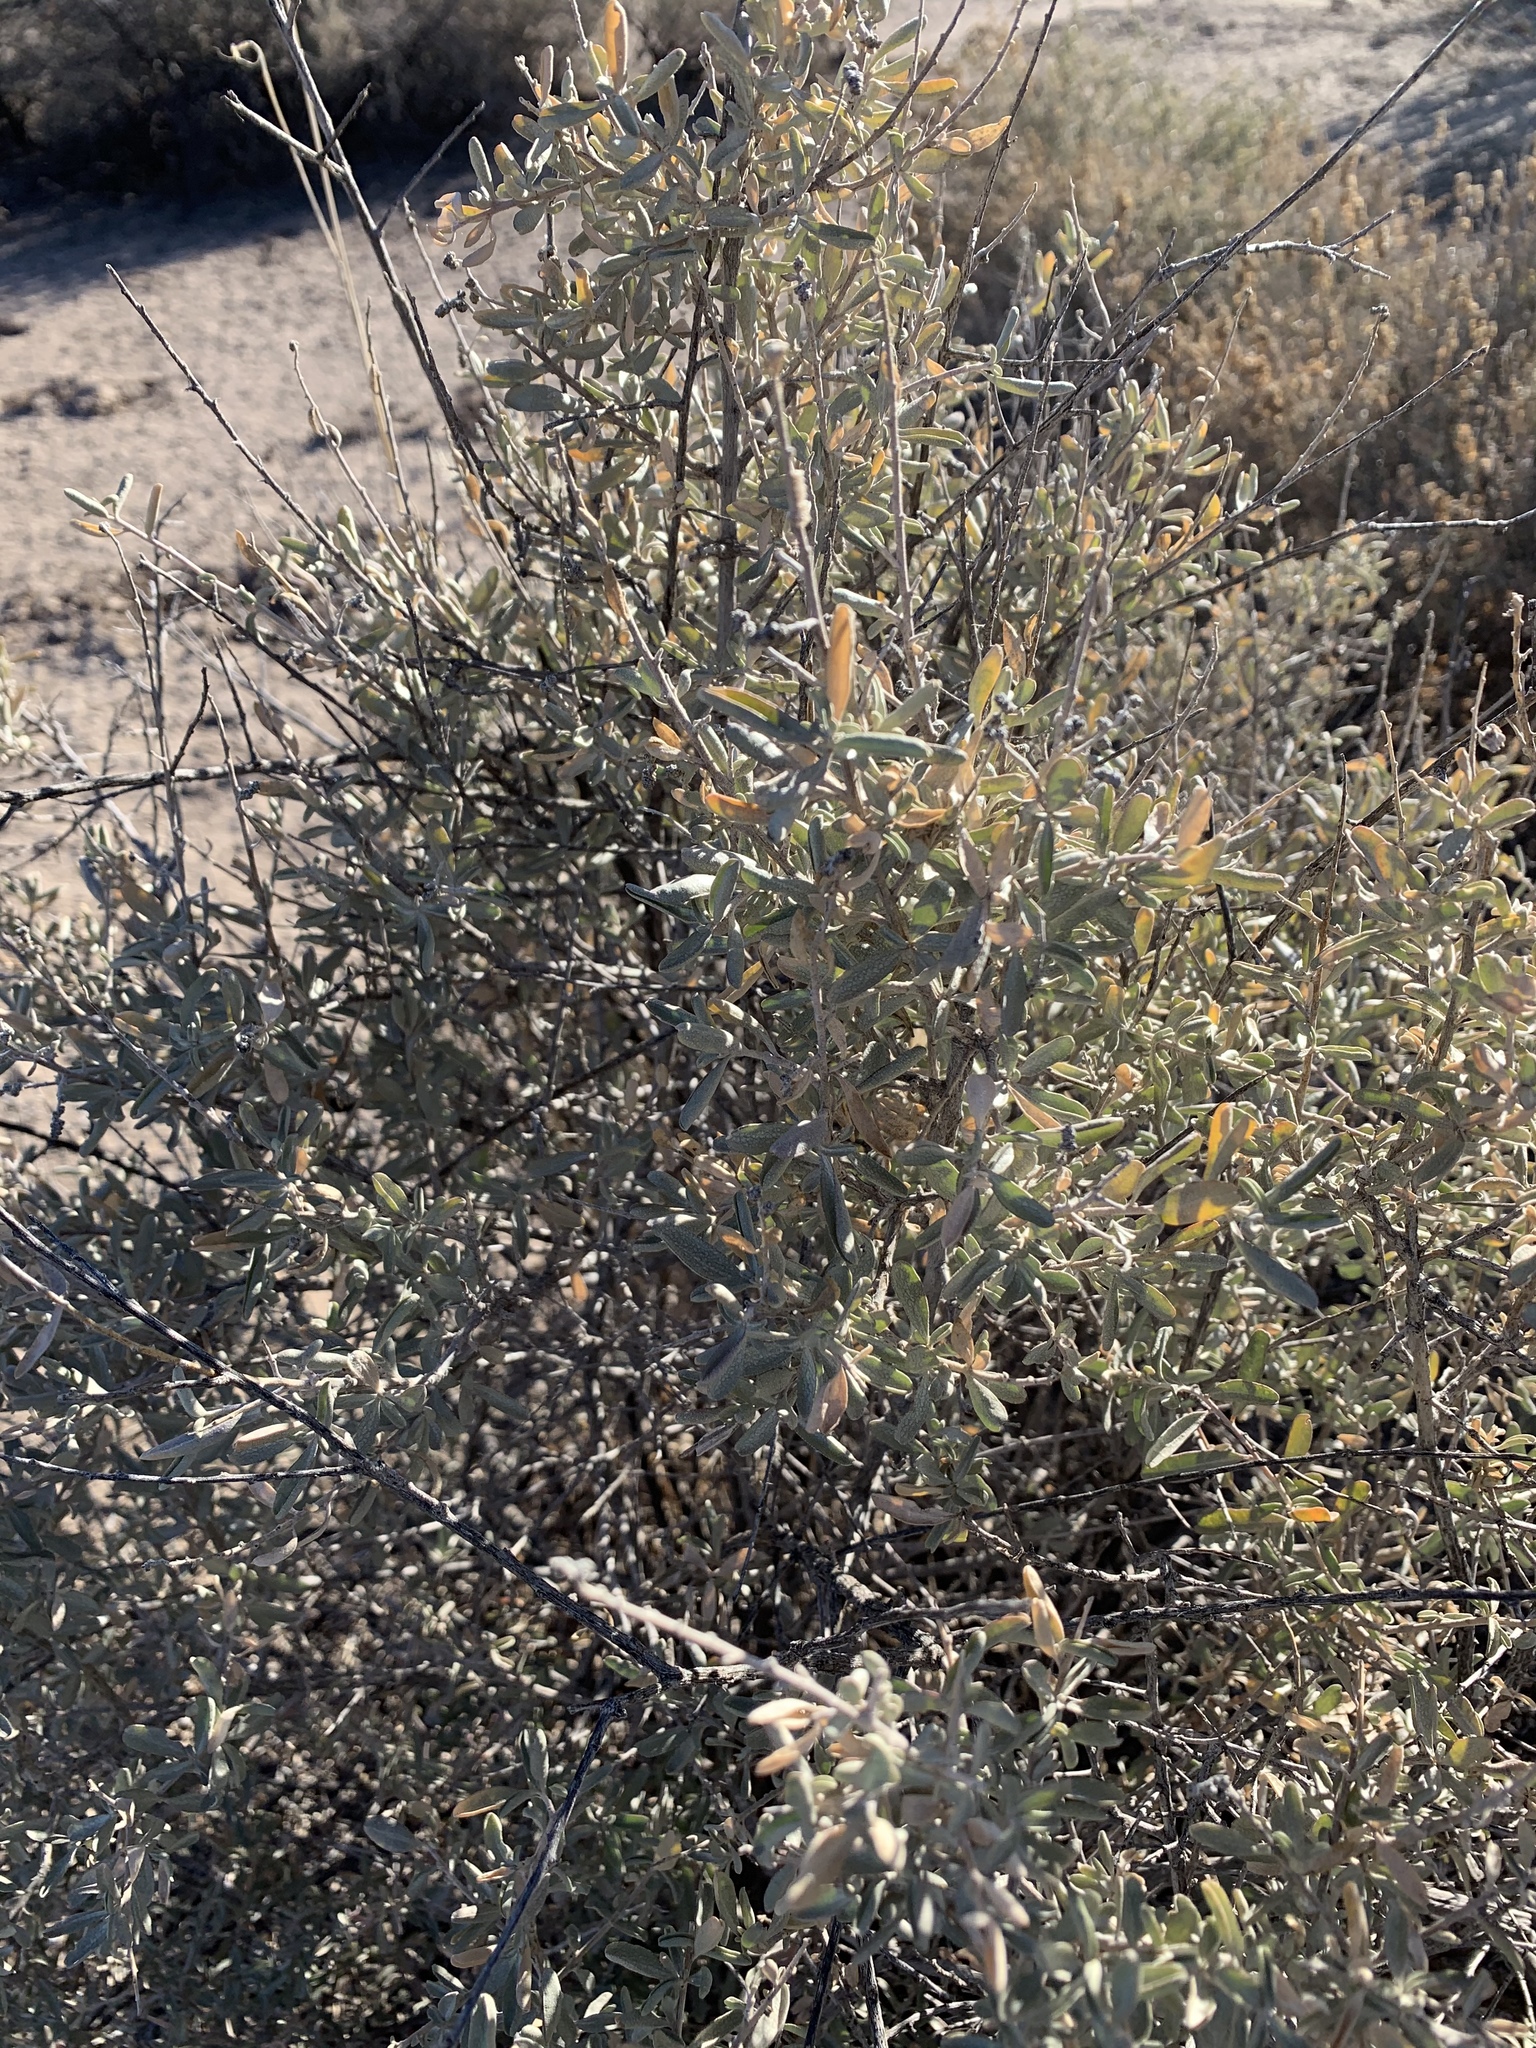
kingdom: Plantae
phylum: Tracheophyta
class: Magnoliopsida
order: Caryophyllales
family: Amaranthaceae
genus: Atriplex
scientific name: Atriplex canescens
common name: Four-wing saltbush
